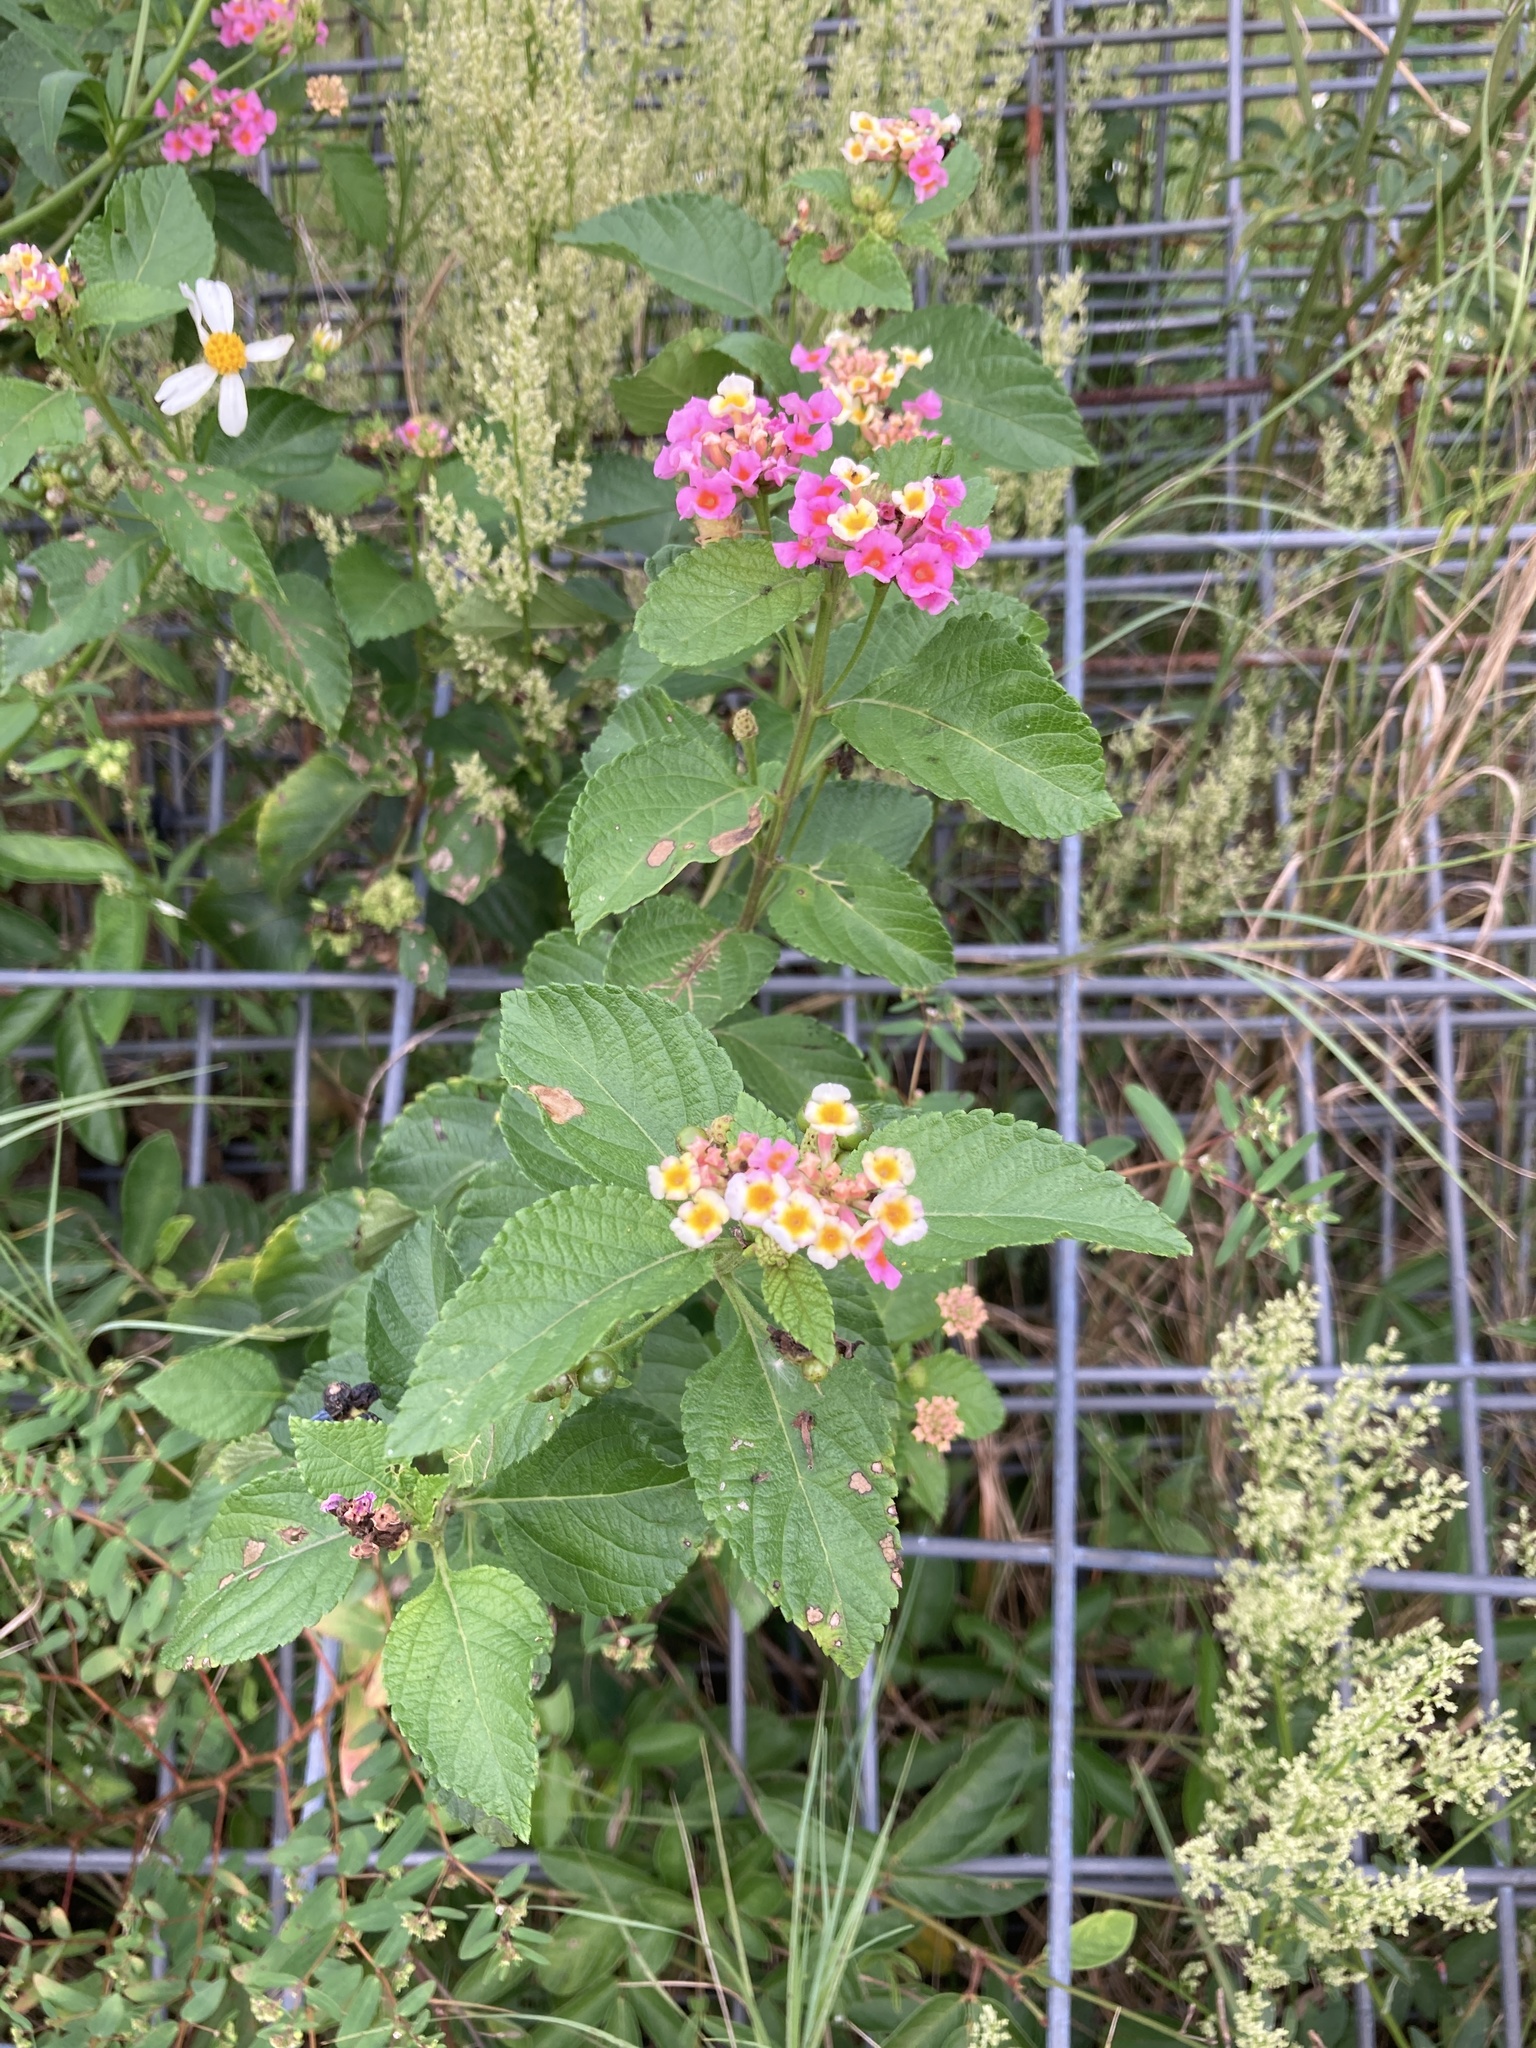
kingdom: Plantae
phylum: Tracheophyta
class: Magnoliopsida
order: Lamiales
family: Verbenaceae
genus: Lantana
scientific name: Lantana camara
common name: Lantana
